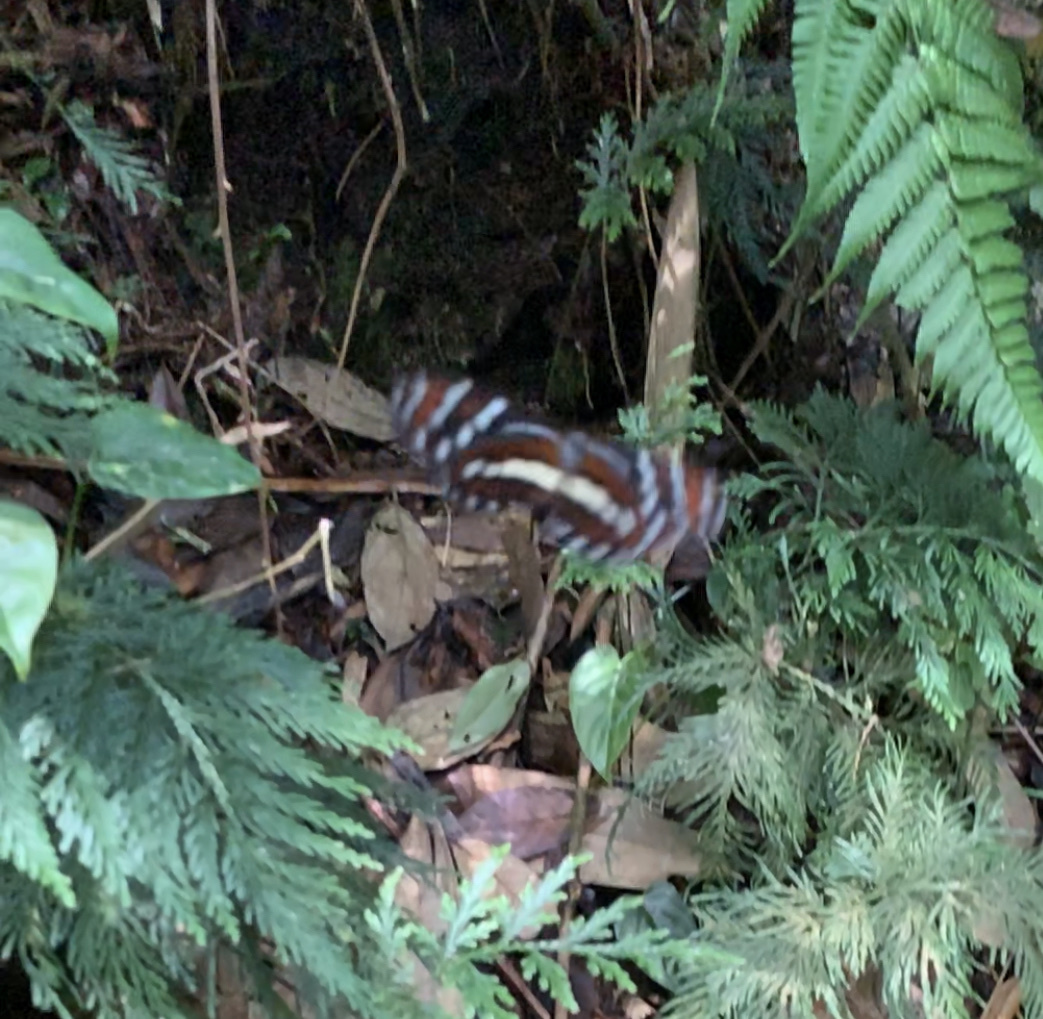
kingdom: Animalia
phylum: Arthropoda
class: Insecta
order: Lepidoptera
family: Nymphalidae
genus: Megoleria
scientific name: Megoleria susiana
